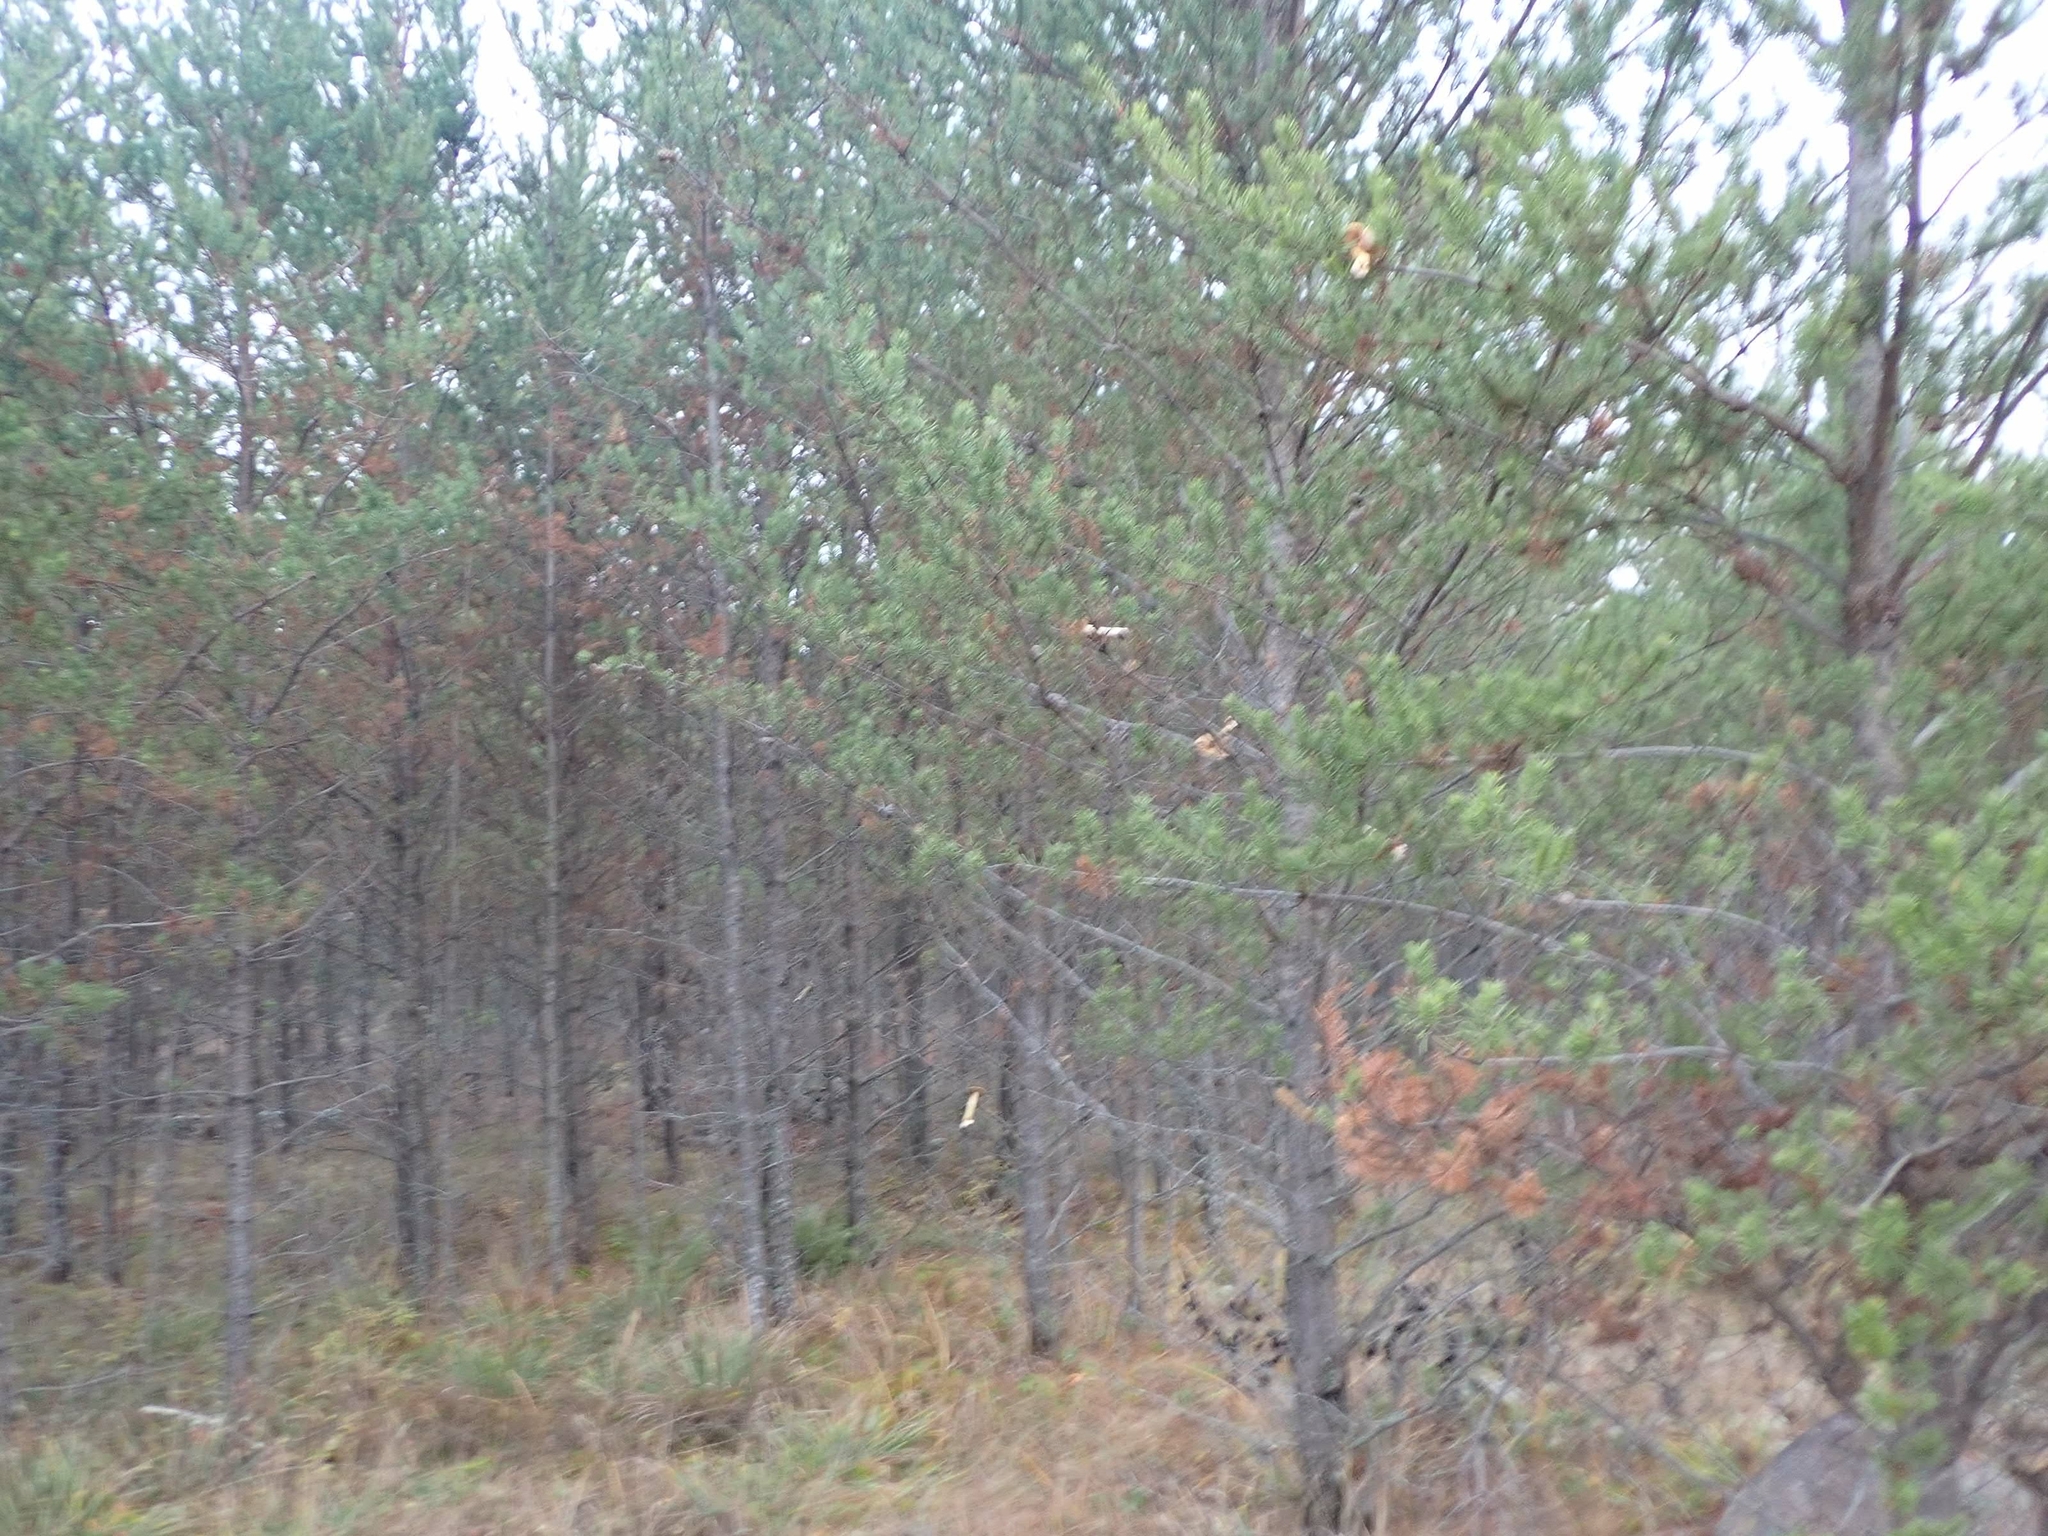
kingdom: Animalia
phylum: Chordata
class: Mammalia
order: Rodentia
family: Sciuridae
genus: Tamiasciurus
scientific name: Tamiasciurus hudsonicus
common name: Red squirrel
